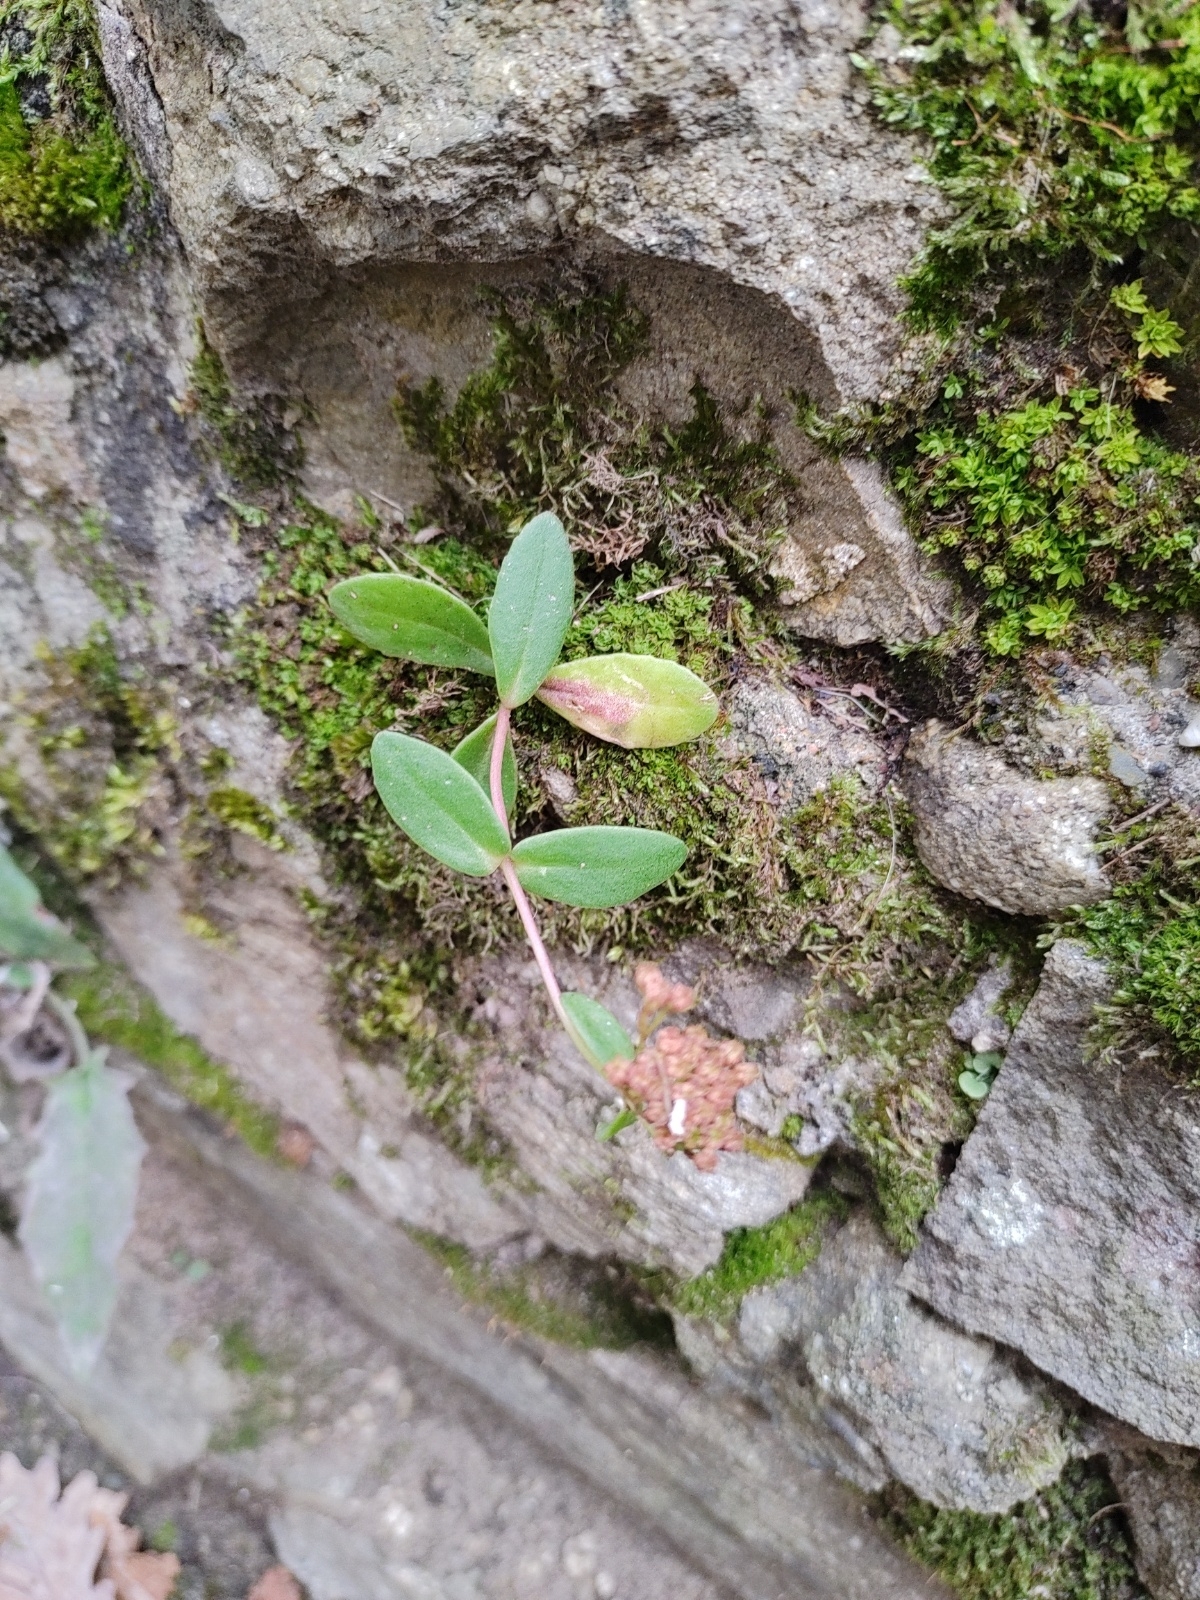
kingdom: Plantae
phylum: Tracheophyta
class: Magnoliopsida
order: Saxifragales
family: Crassulaceae
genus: Hylotelephium
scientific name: Hylotelephium maximum
